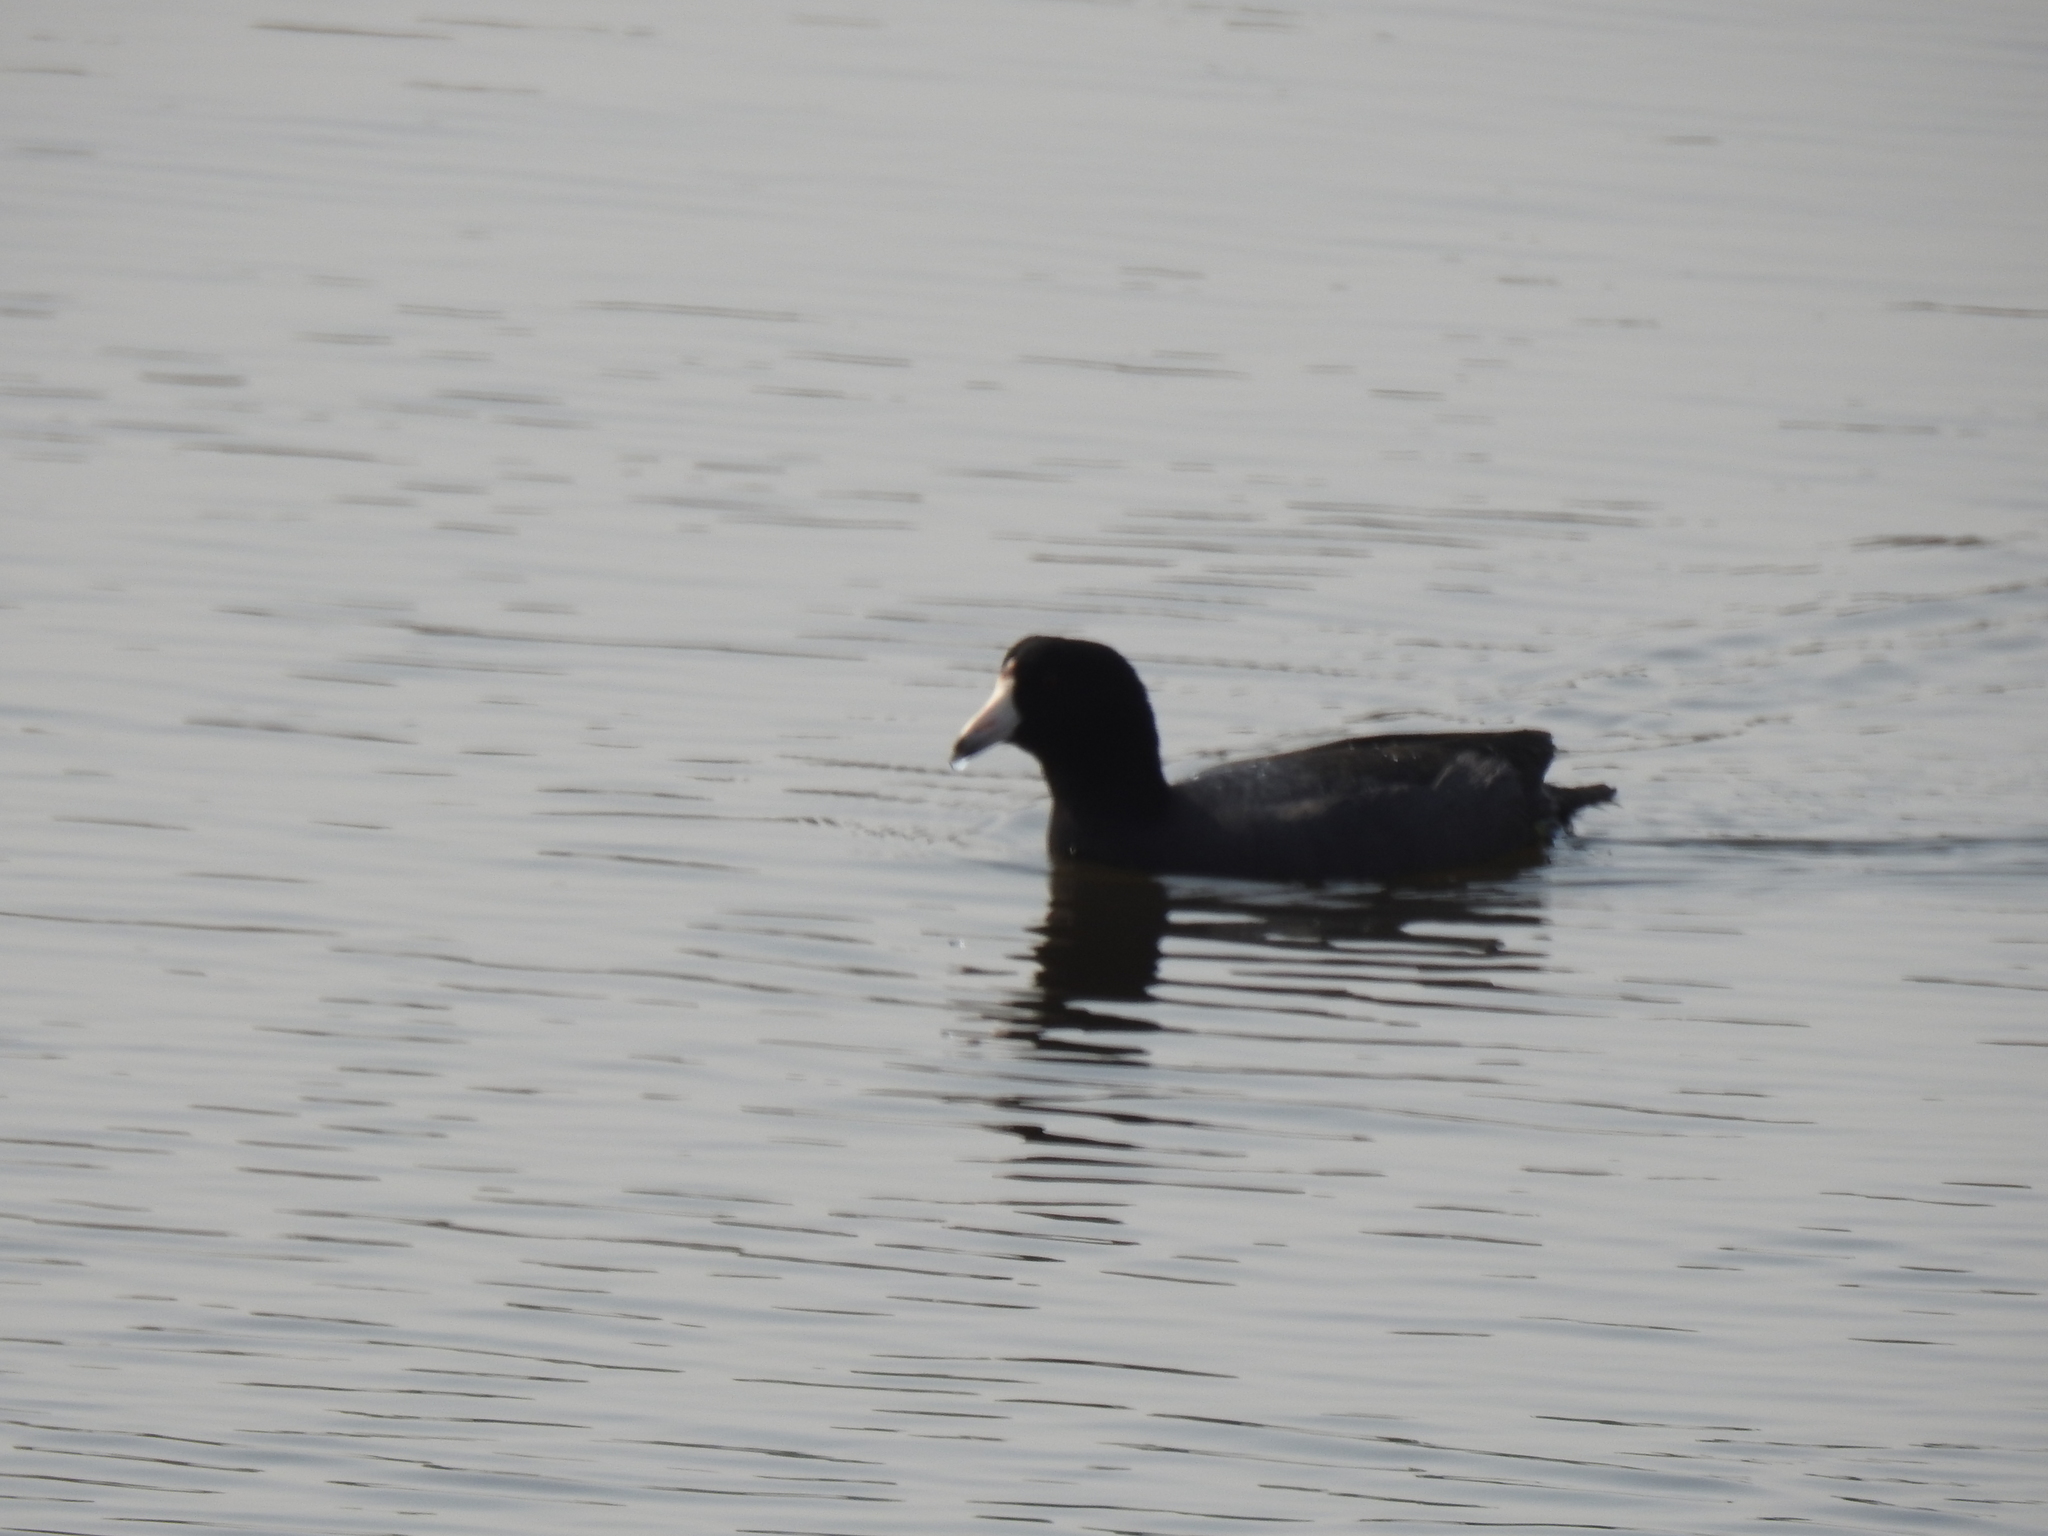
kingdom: Animalia
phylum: Chordata
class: Aves
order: Gruiformes
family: Rallidae
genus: Fulica
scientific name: Fulica americana
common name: American coot
